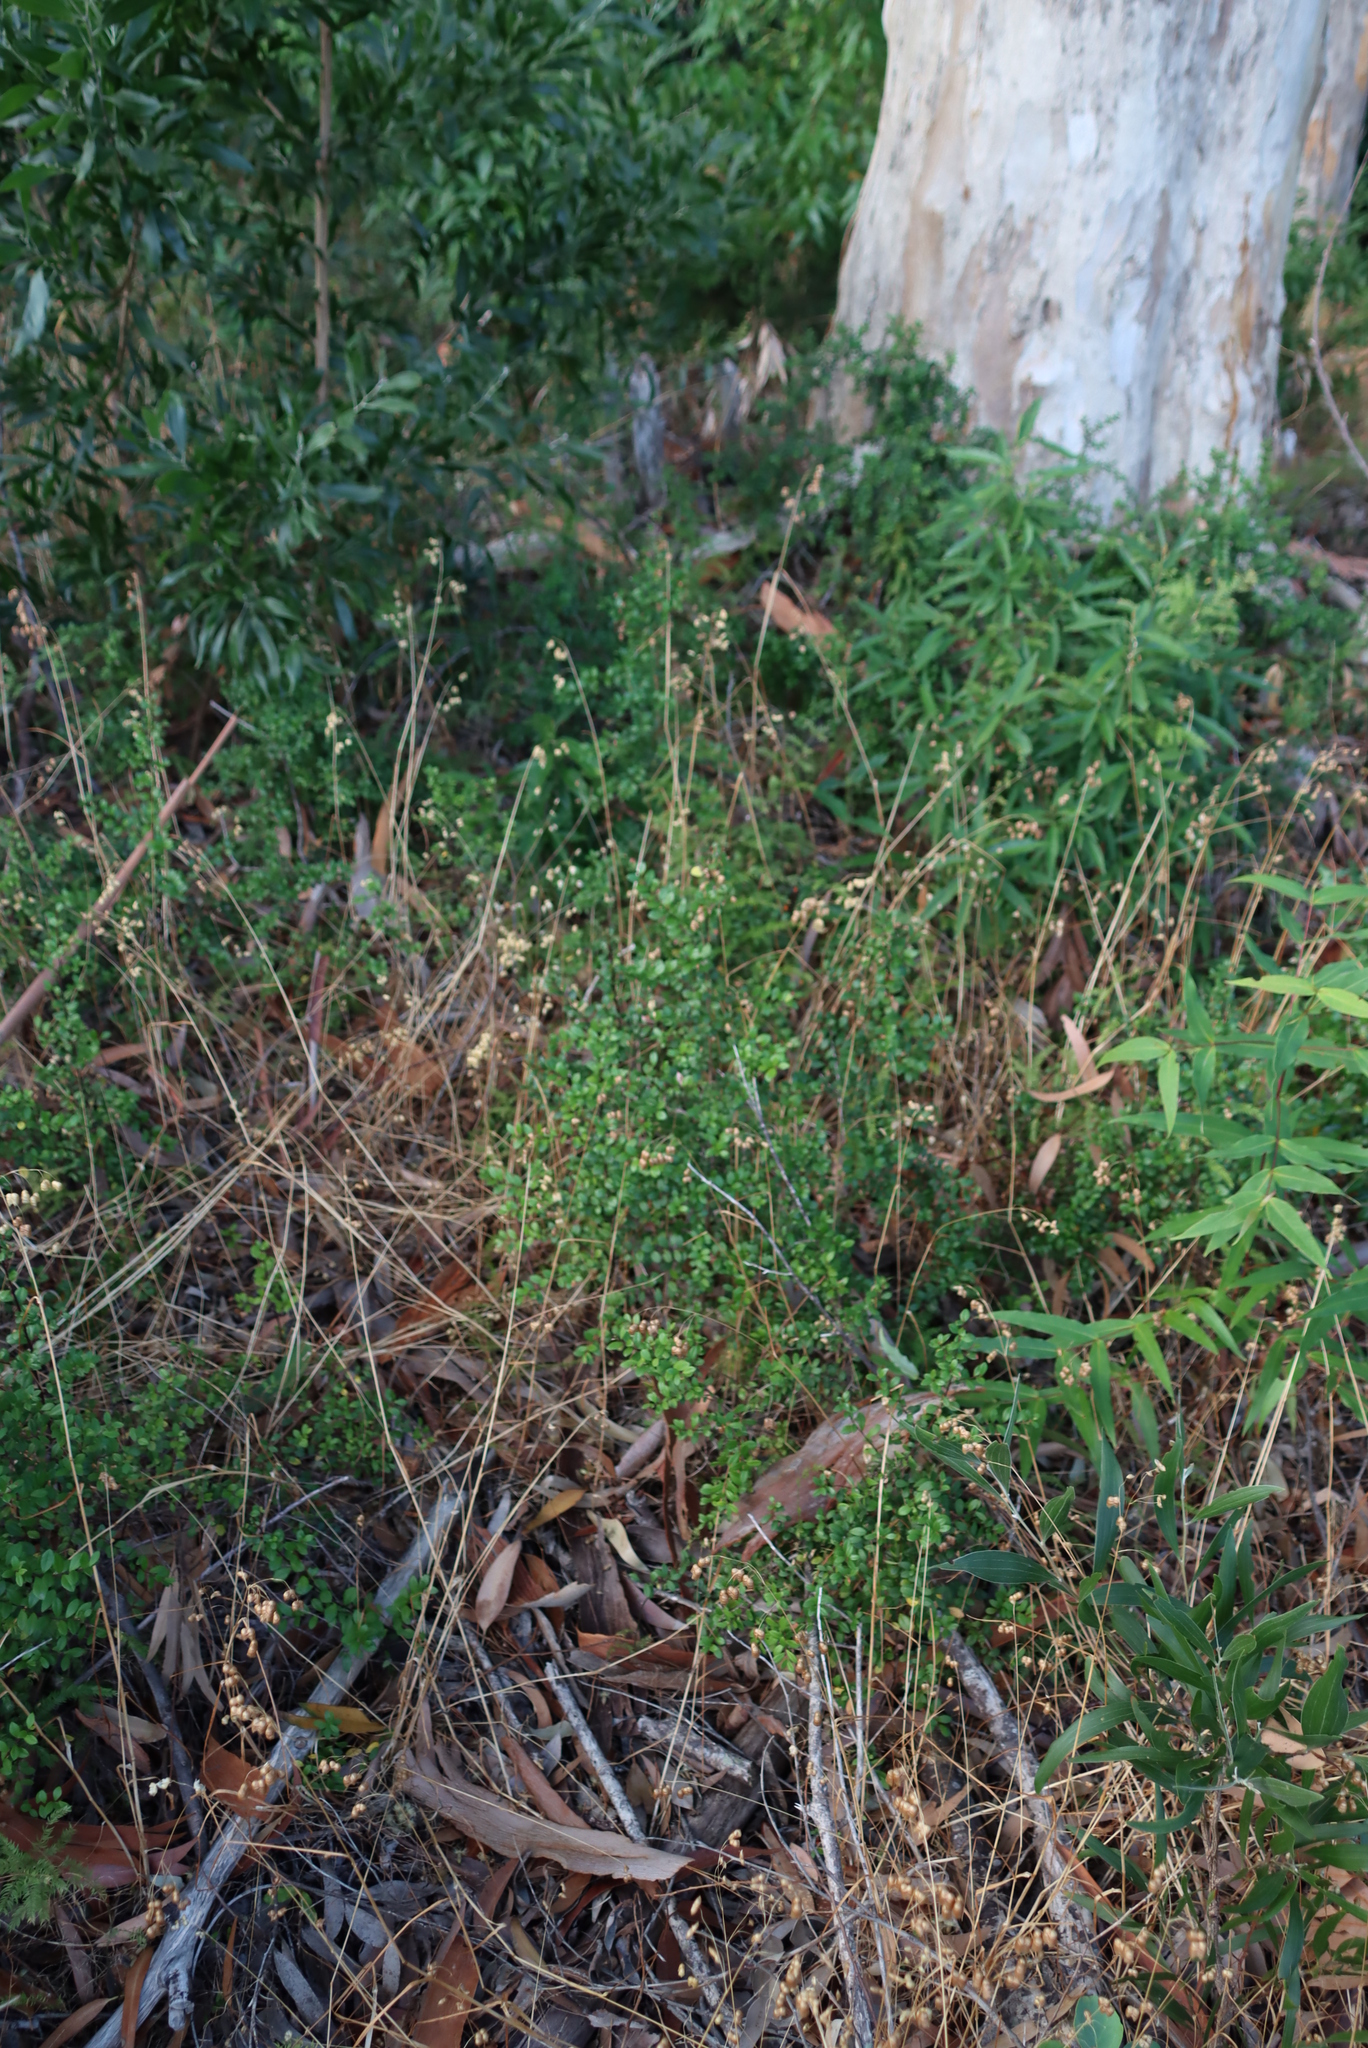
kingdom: Plantae
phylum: Tracheophyta
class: Magnoliopsida
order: Ericales
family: Primulaceae
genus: Myrsine
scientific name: Myrsine africana
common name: African-boxwood
